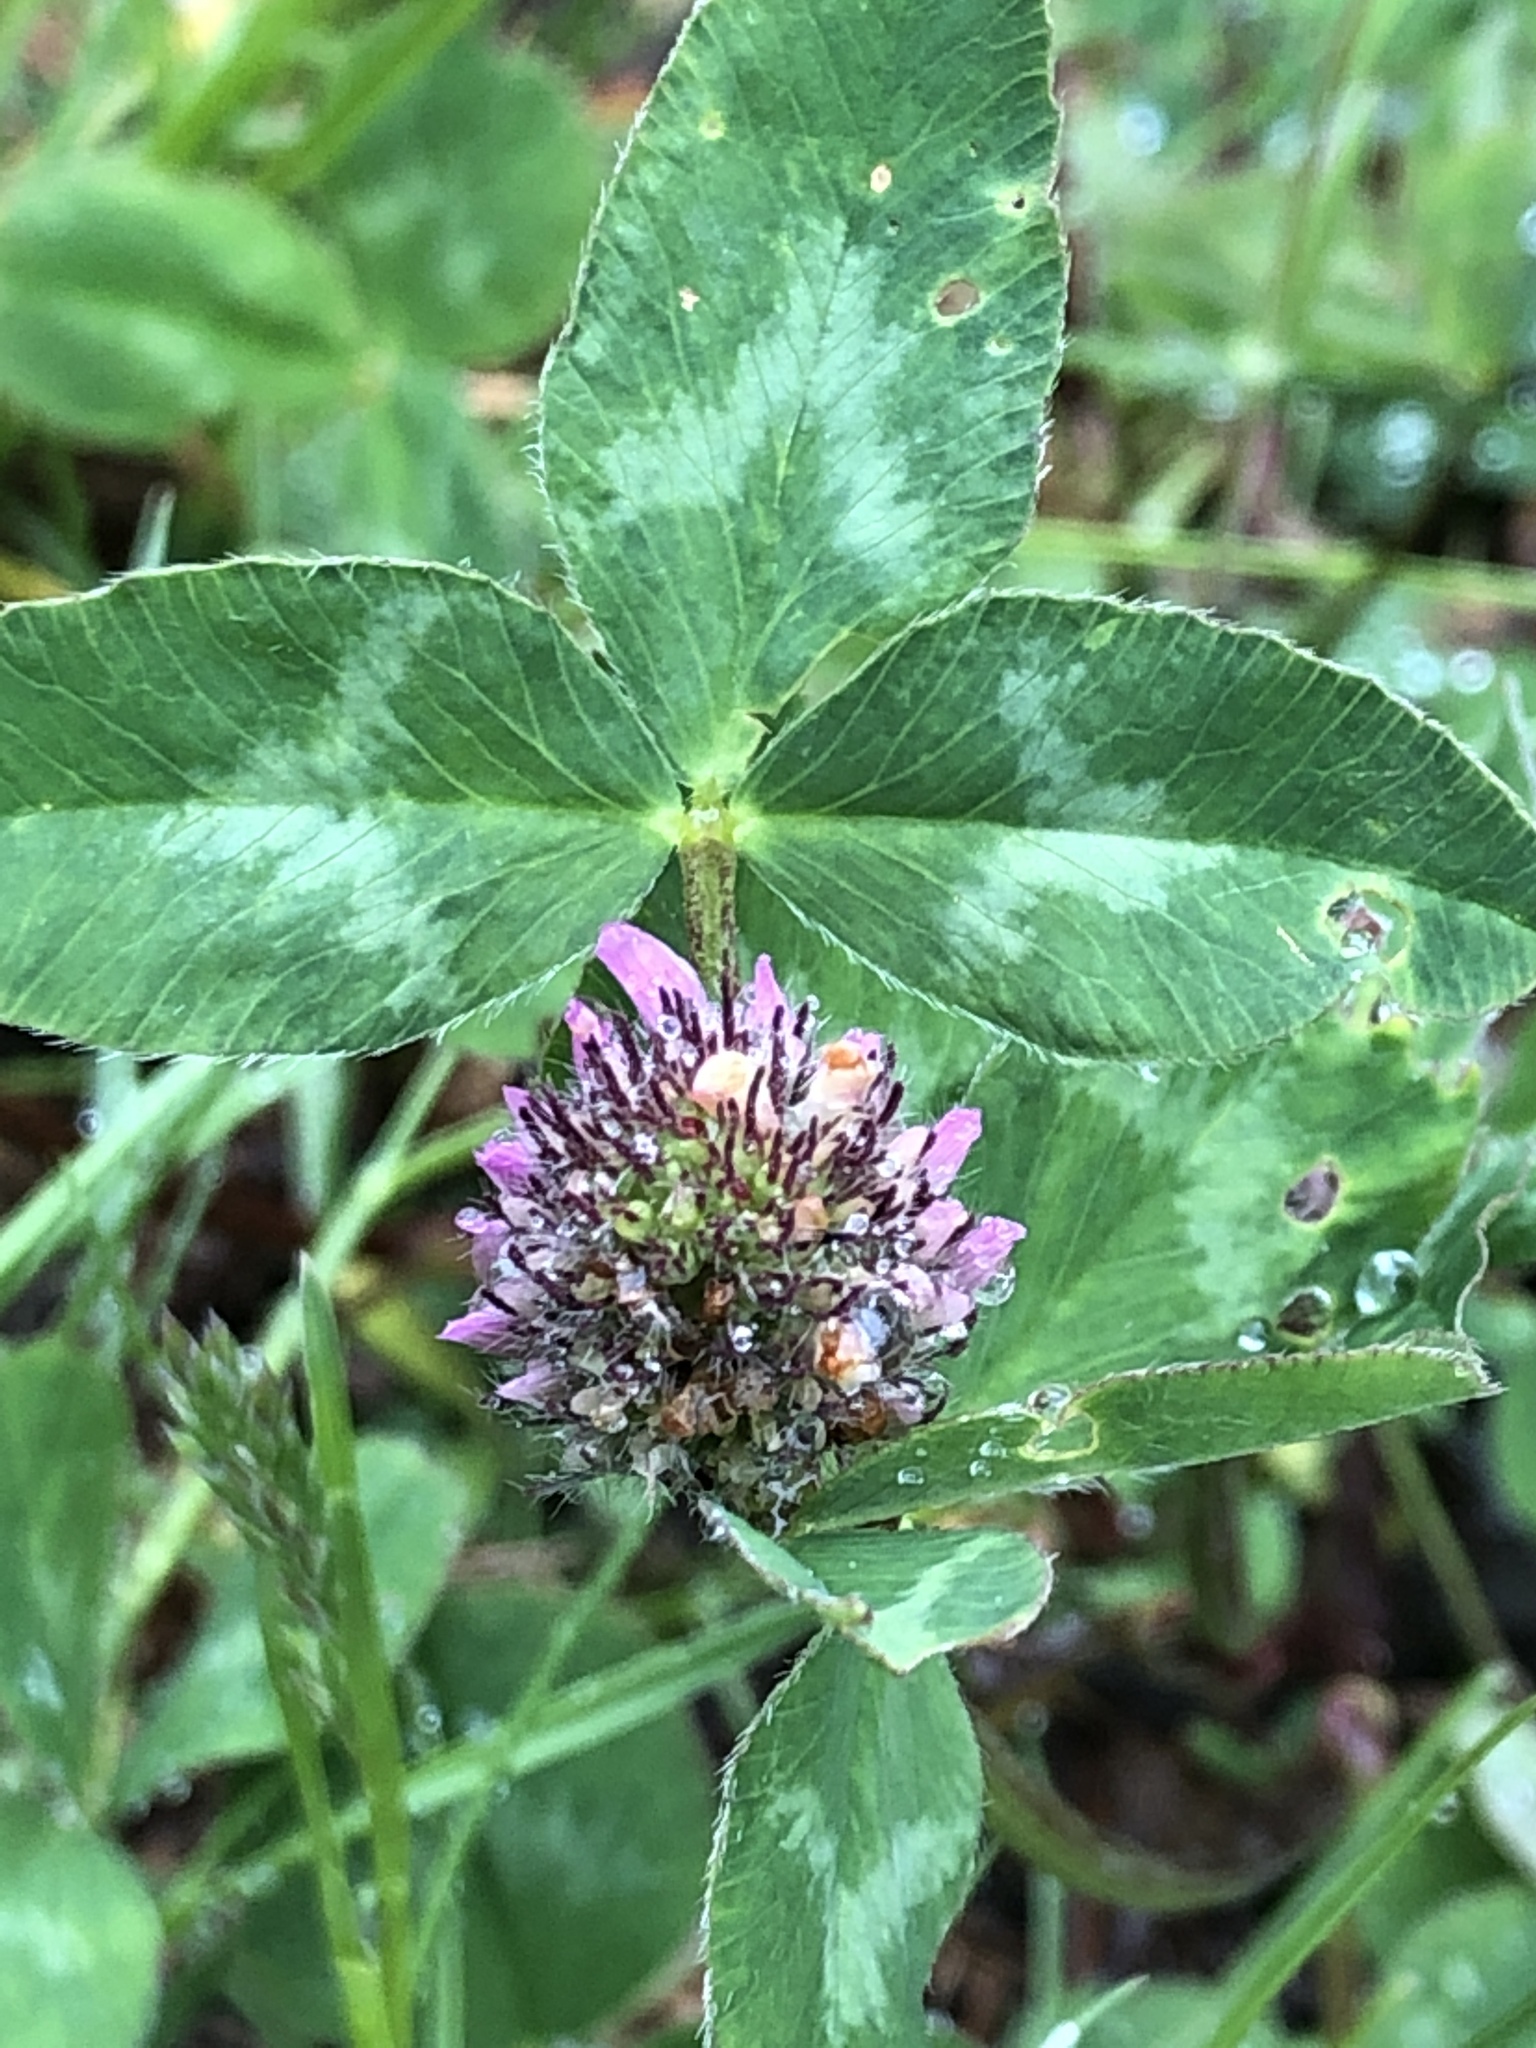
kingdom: Plantae
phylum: Tracheophyta
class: Magnoliopsida
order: Fabales
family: Fabaceae
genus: Trifolium
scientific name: Trifolium pratense
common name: Red clover
